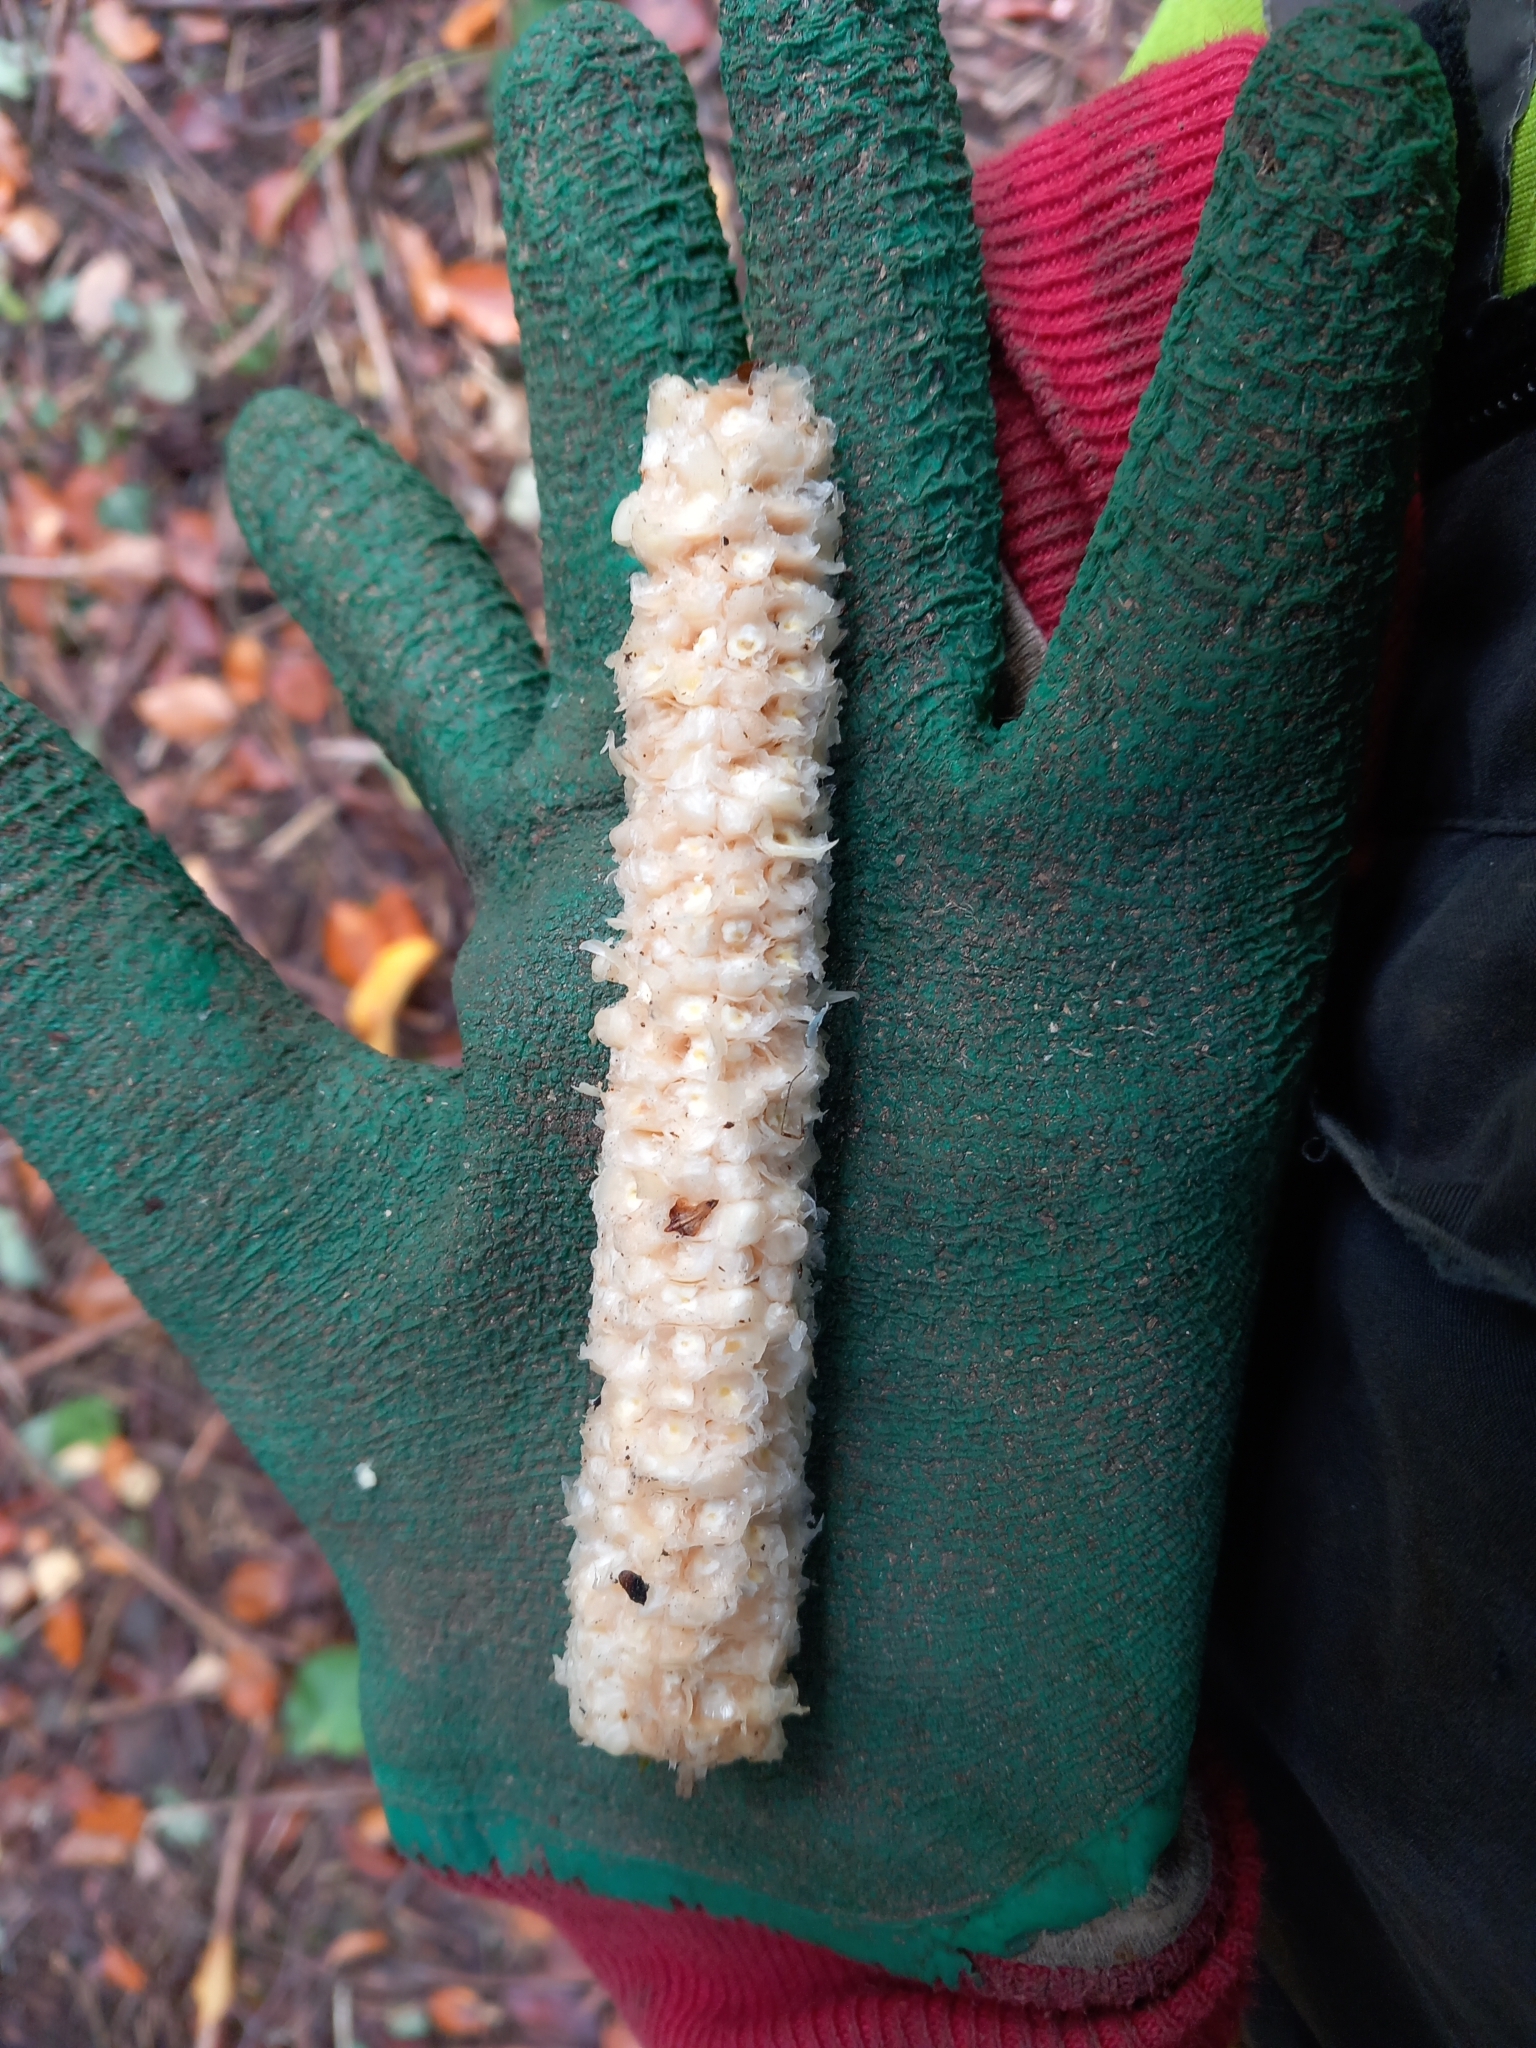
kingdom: Plantae
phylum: Tracheophyta
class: Liliopsida
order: Poales
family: Poaceae
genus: Zea
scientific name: Zea mays
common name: Maize
